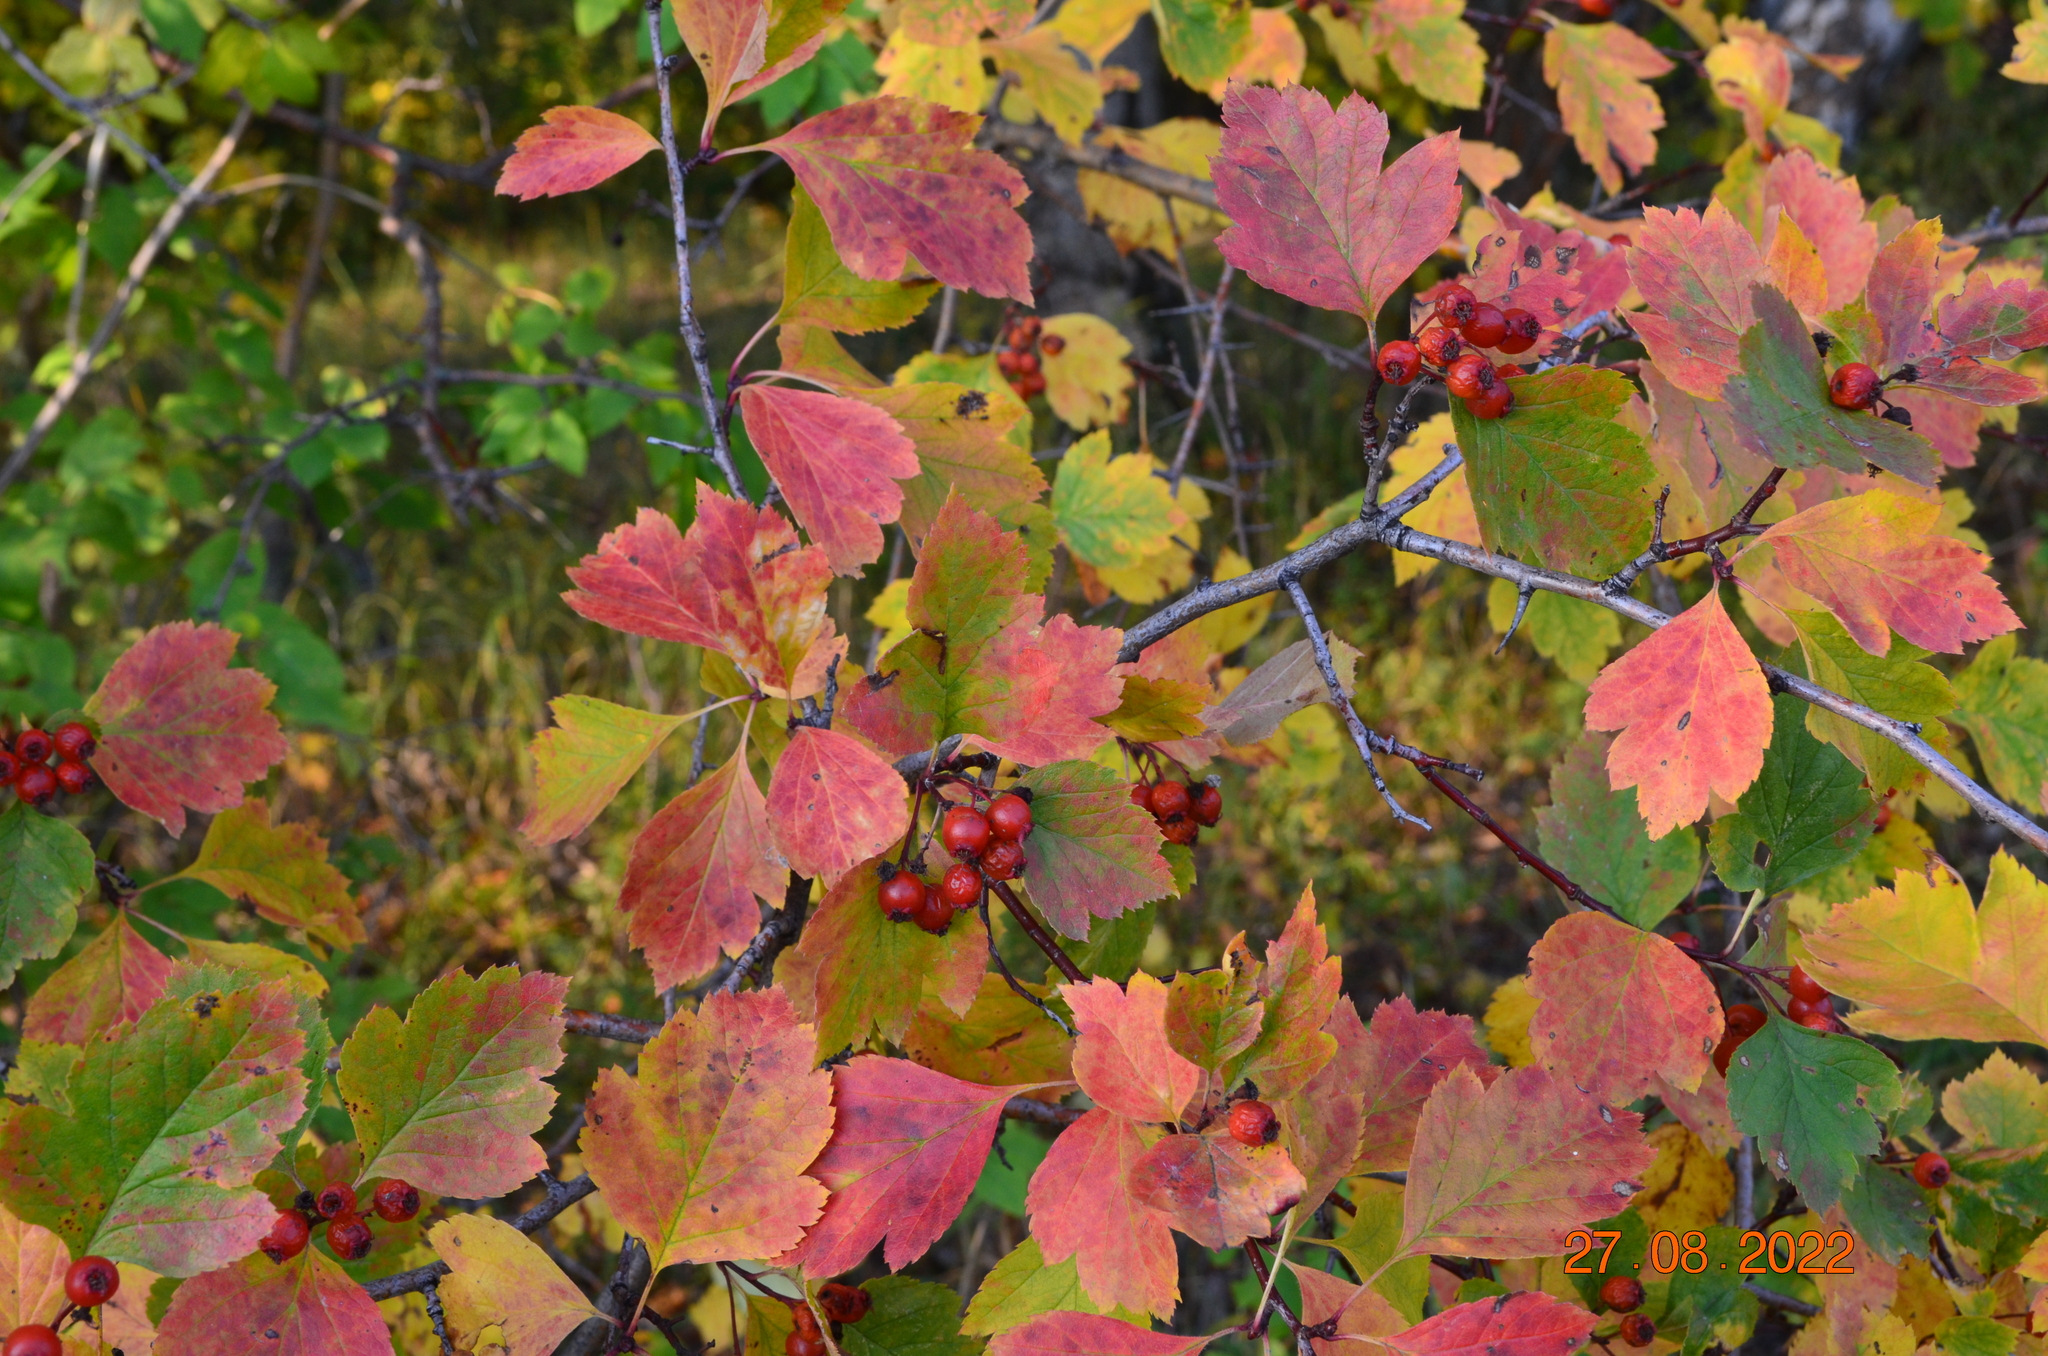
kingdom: Plantae
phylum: Tracheophyta
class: Magnoliopsida
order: Rosales
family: Rosaceae
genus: Crataegus
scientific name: Crataegus sanguinea
